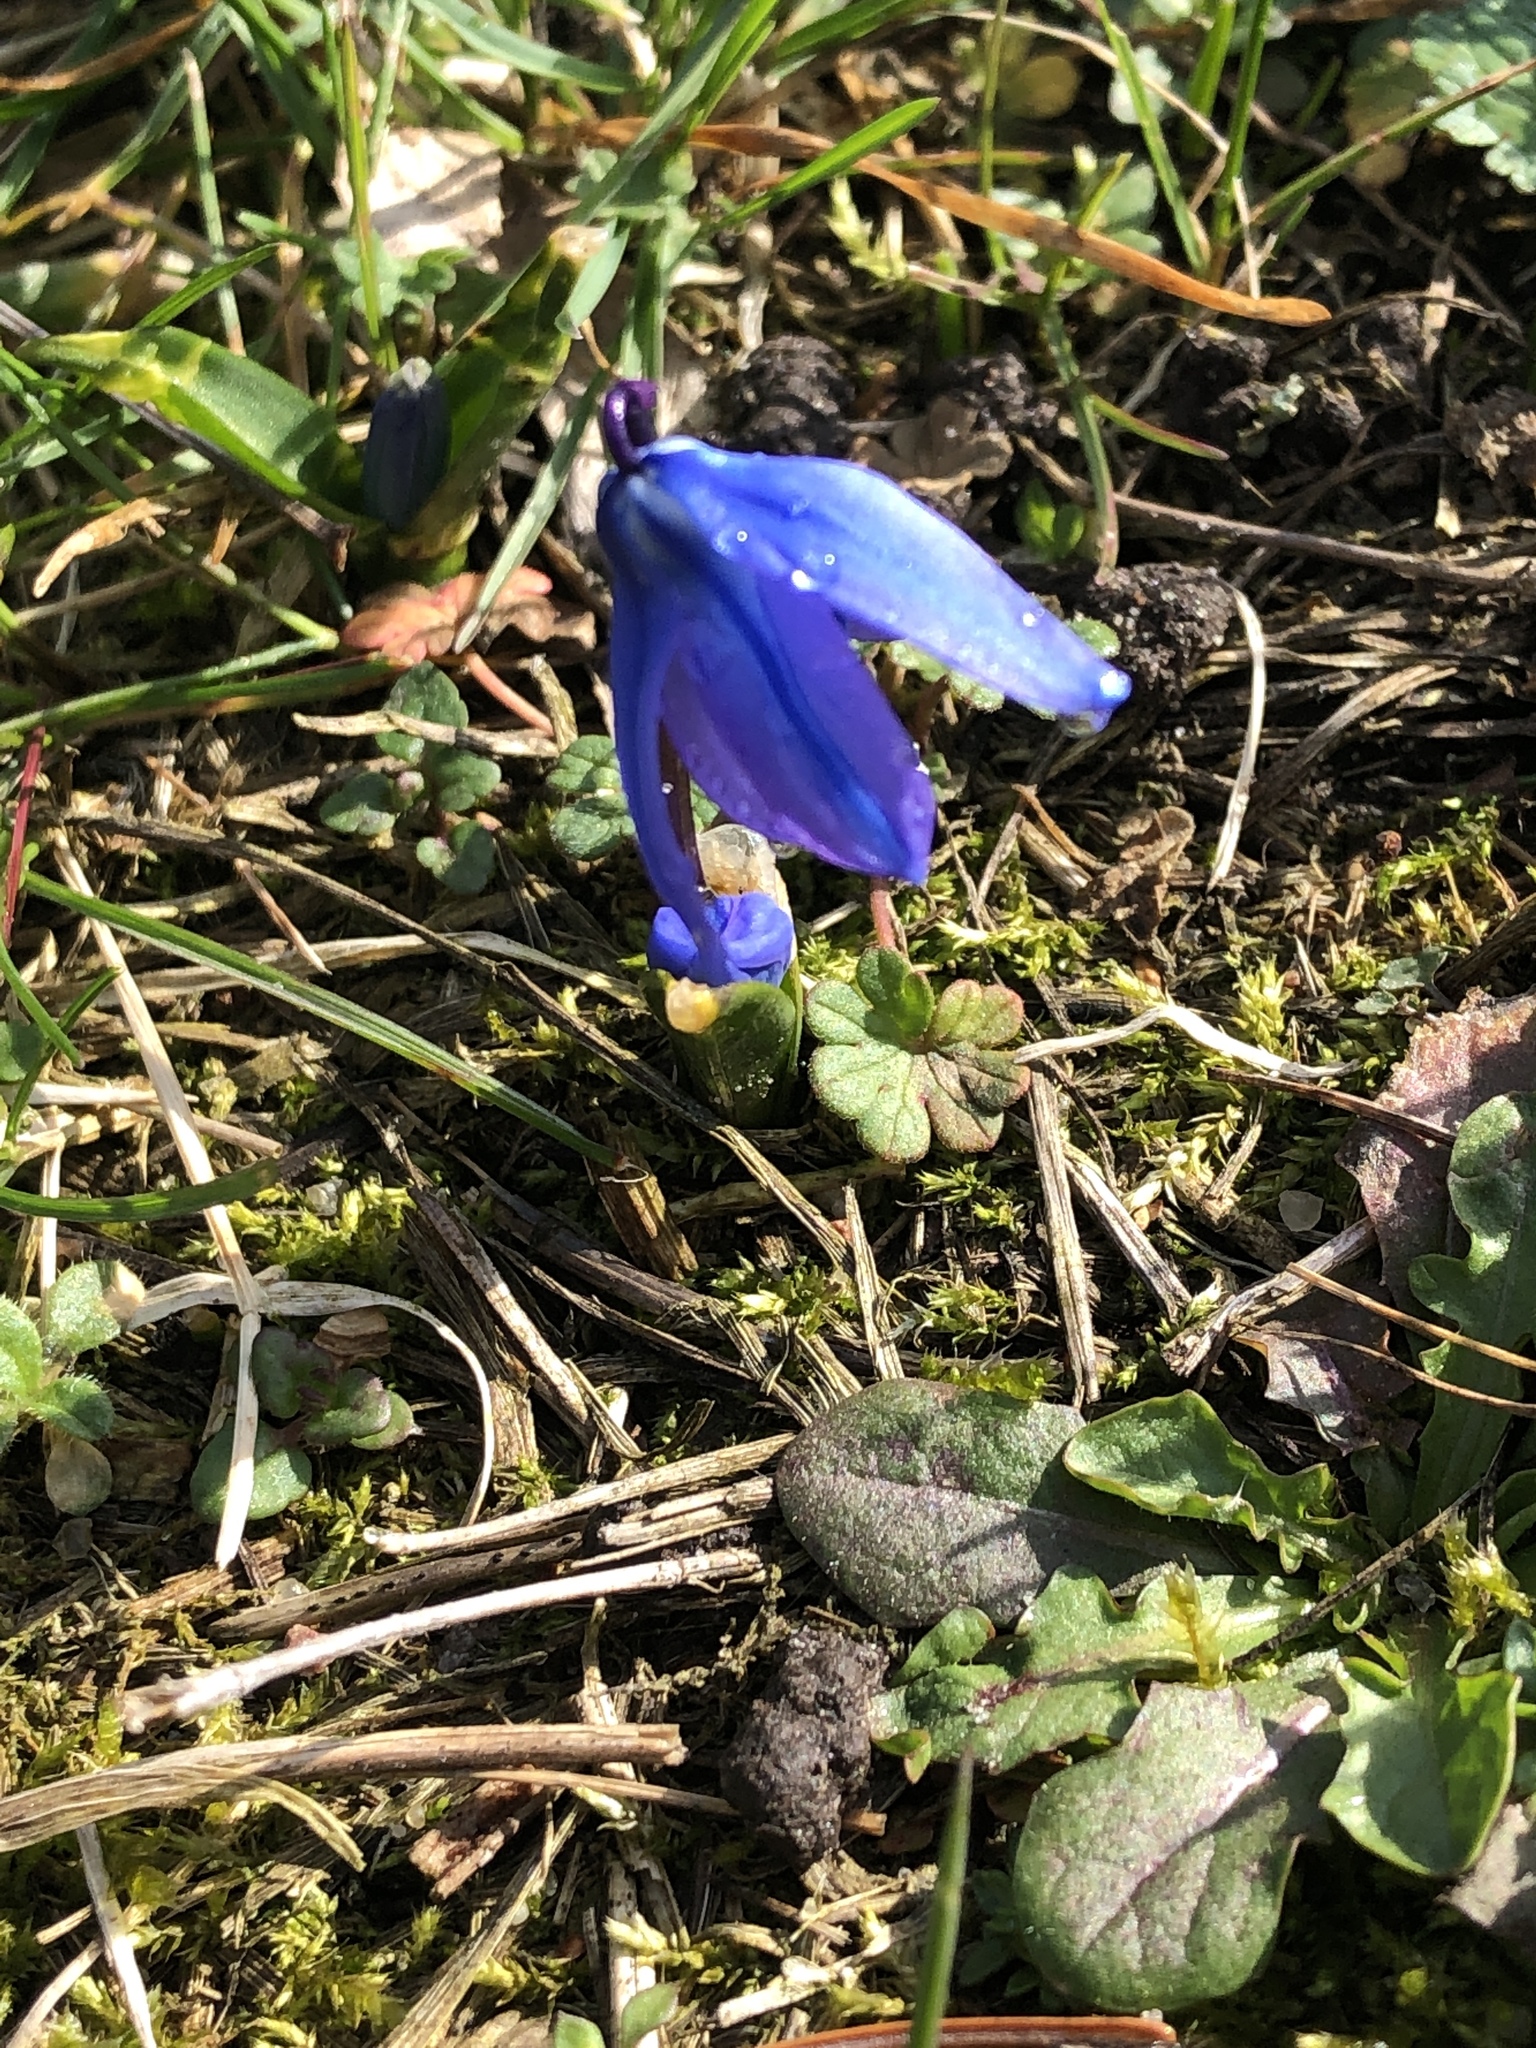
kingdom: Plantae
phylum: Tracheophyta
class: Liliopsida
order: Asparagales
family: Asparagaceae
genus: Scilla
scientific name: Scilla siberica
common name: Siberian squill
